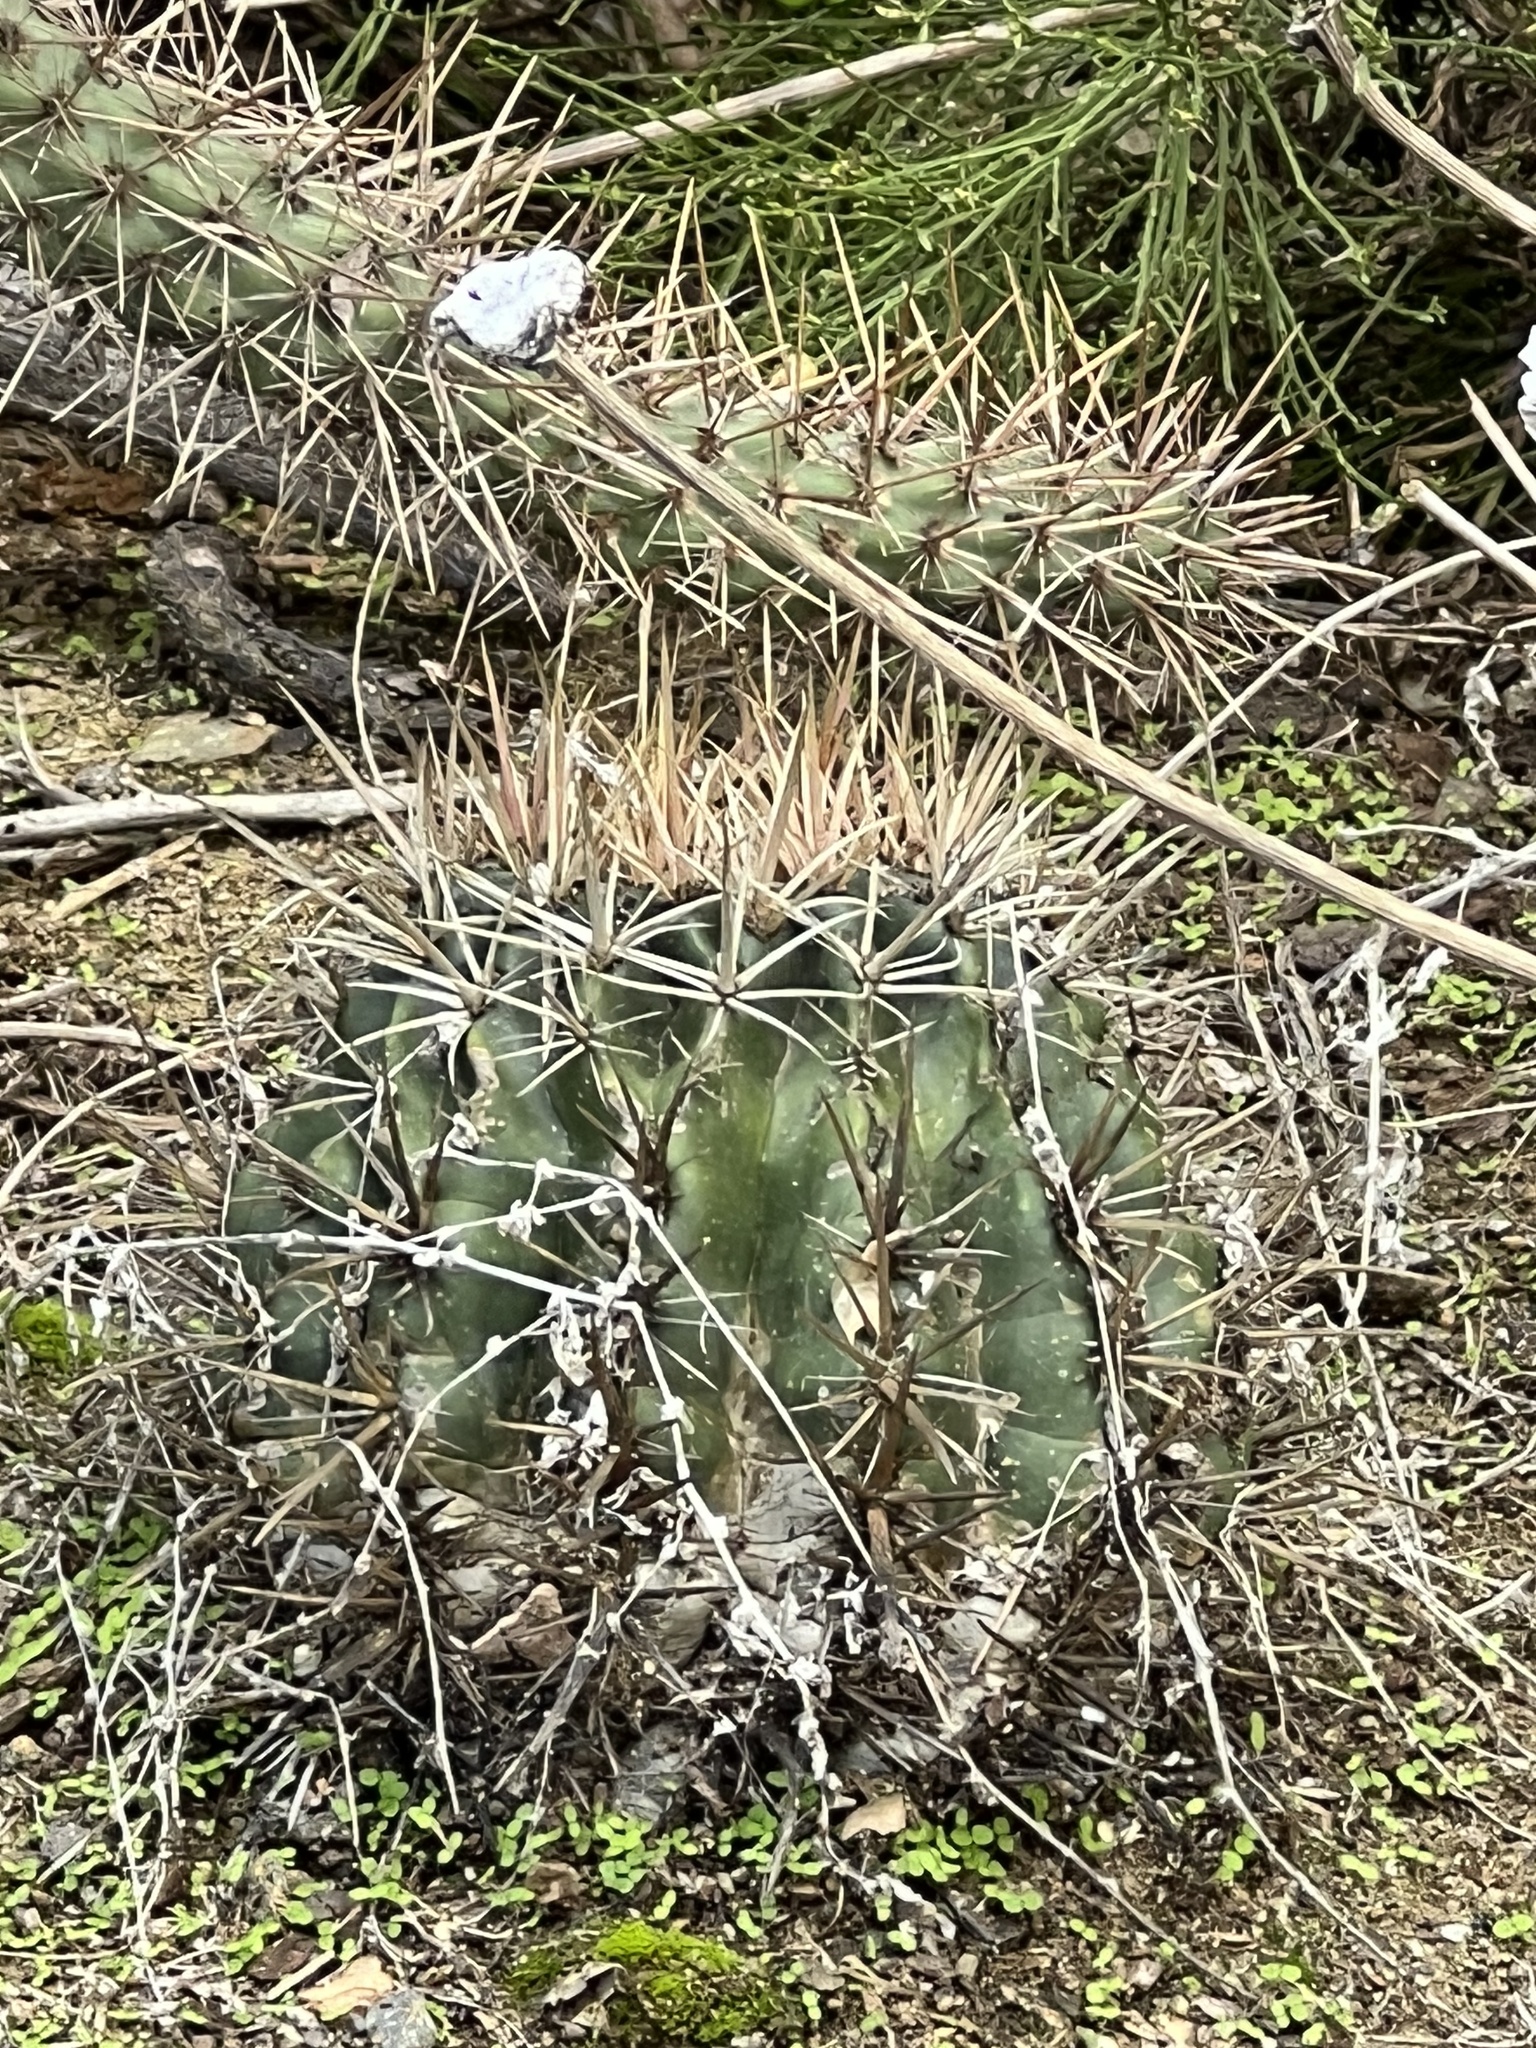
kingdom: Plantae
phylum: Tracheophyta
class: Magnoliopsida
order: Caryophyllales
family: Cactaceae
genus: Ferocactus
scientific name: Ferocactus viridescens
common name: San diego barrel cactus
